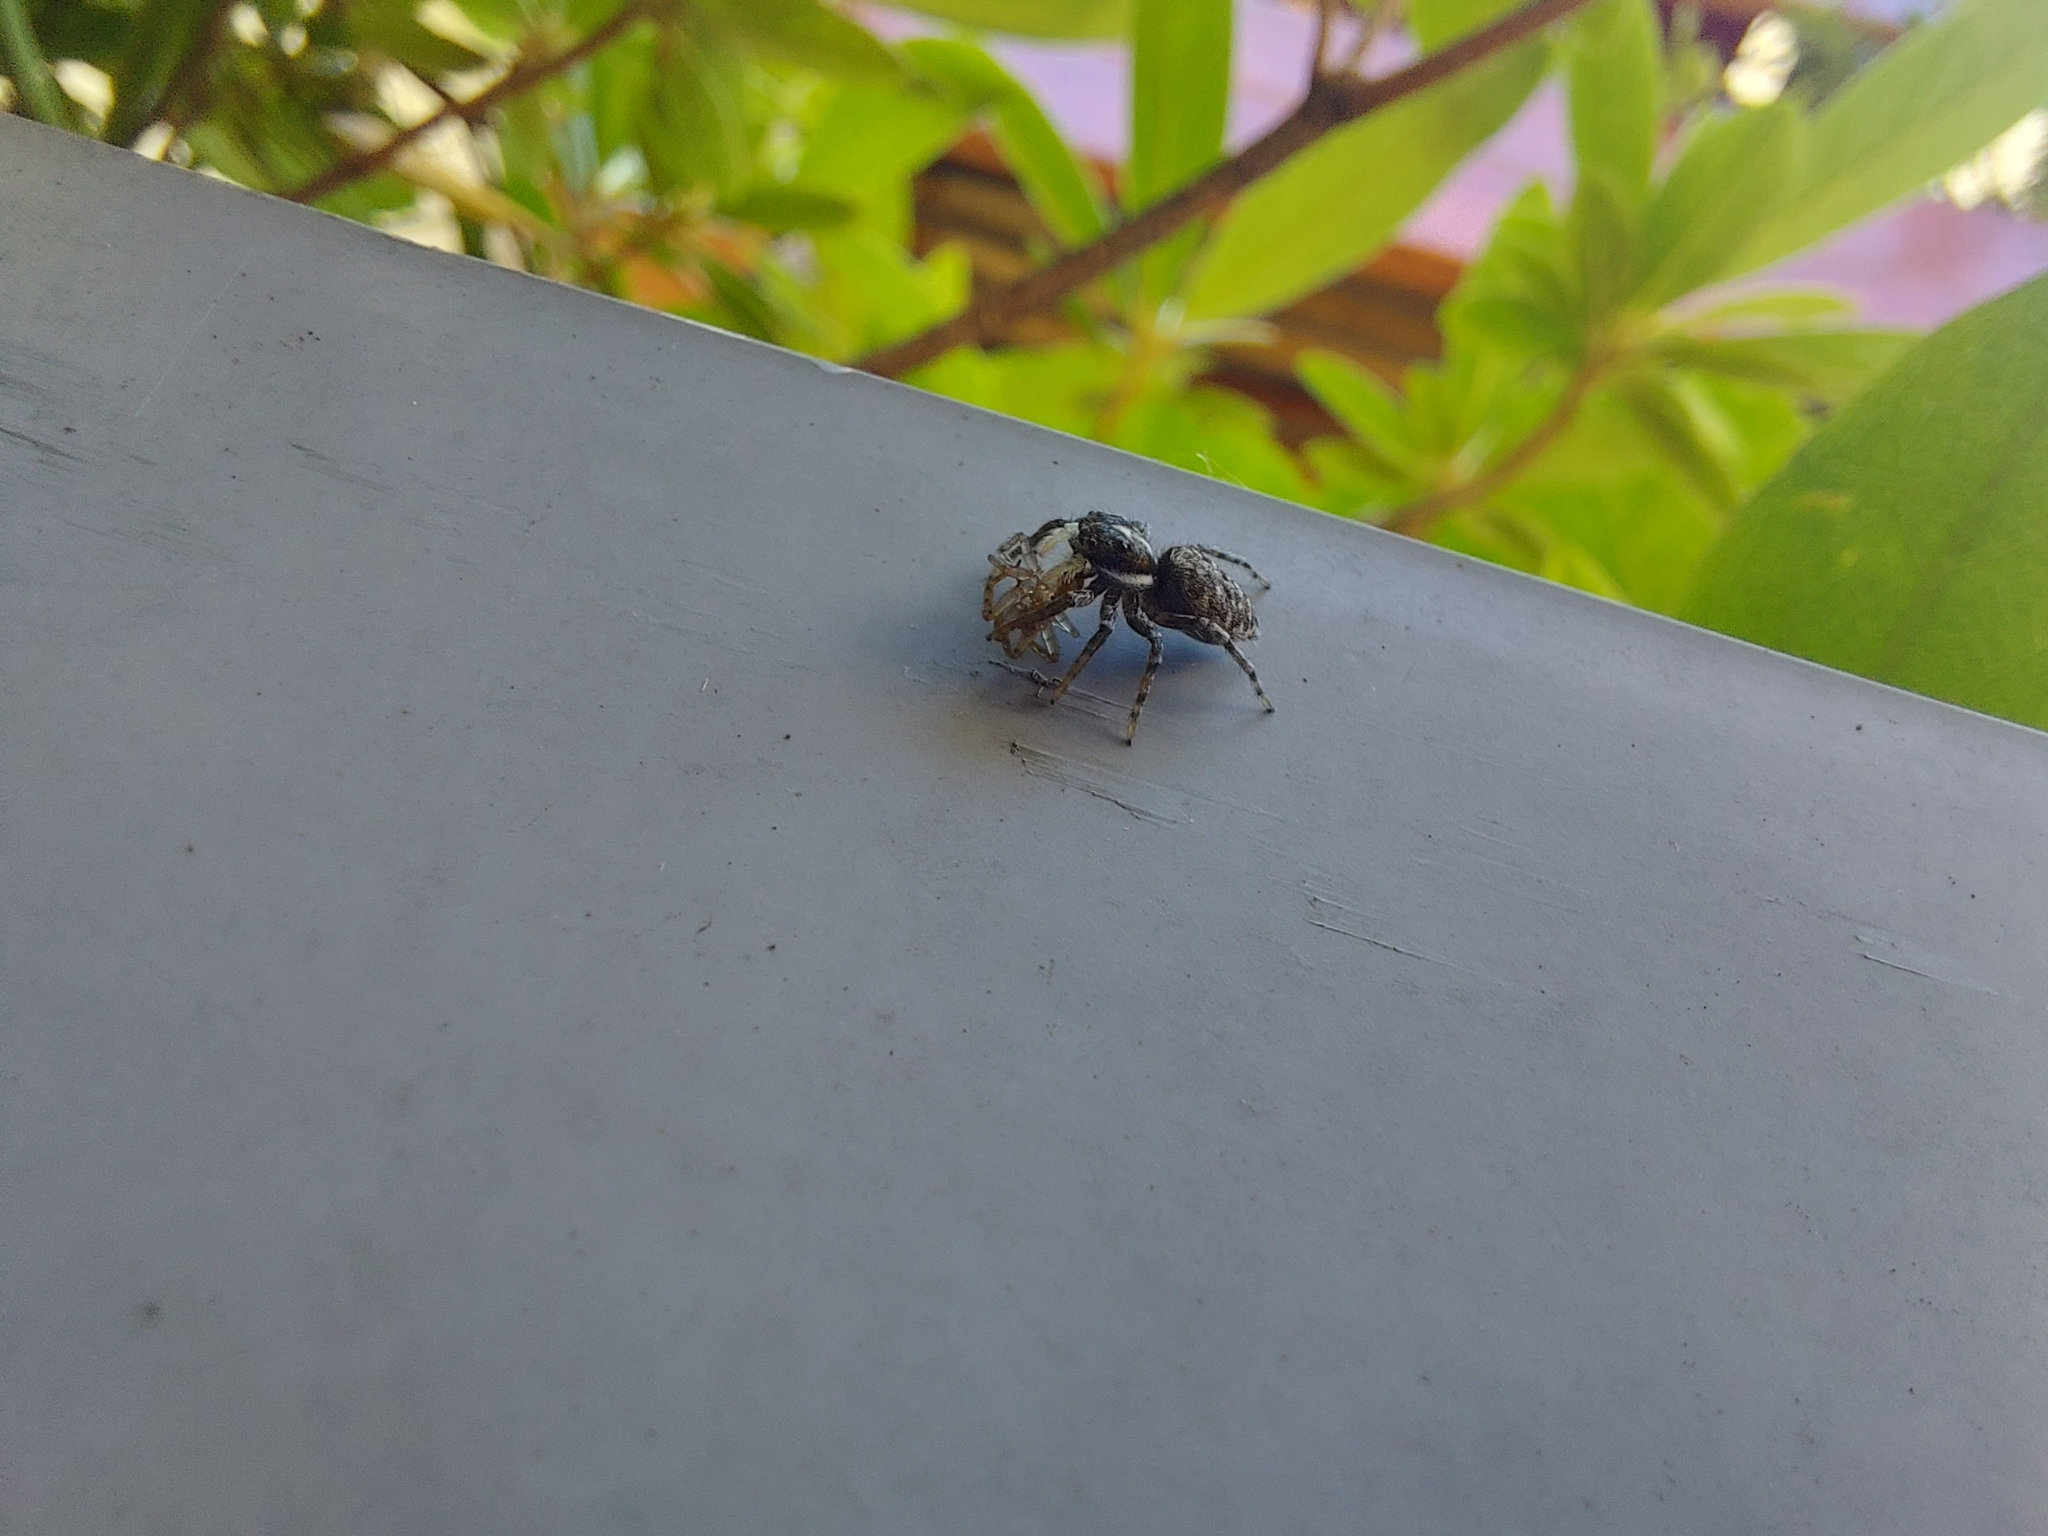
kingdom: Animalia
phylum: Arthropoda
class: Arachnida
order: Araneae
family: Salticidae
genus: Menemerus
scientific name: Menemerus semilimbatus
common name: Jumping spider
